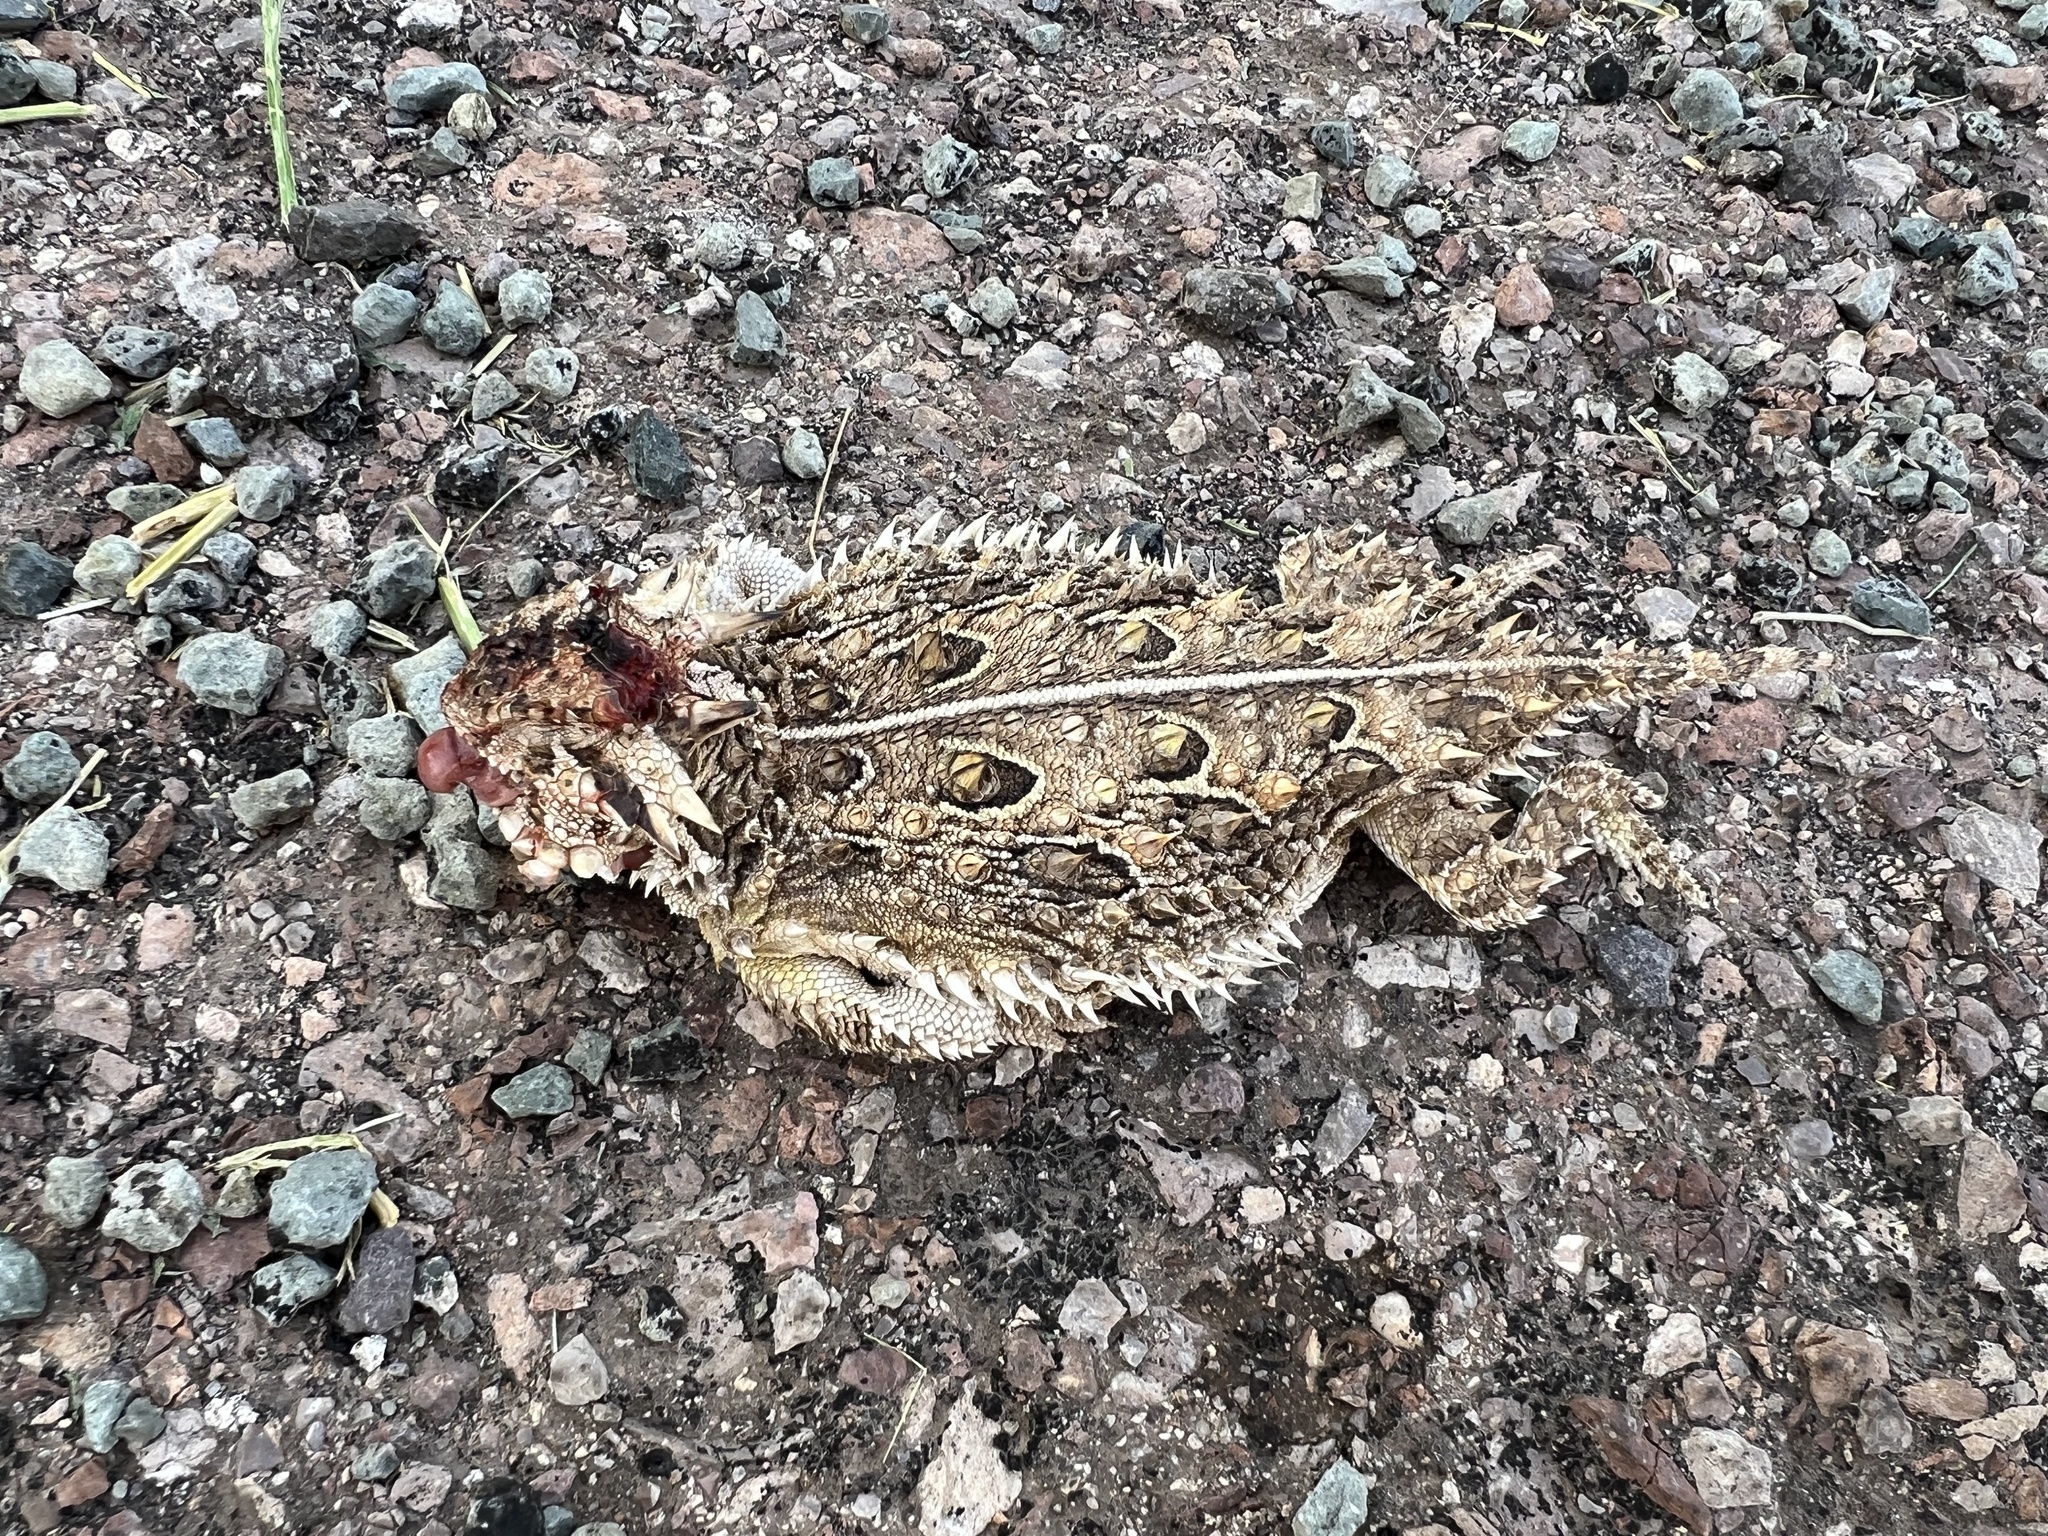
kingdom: Animalia
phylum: Chordata
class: Squamata
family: Phrynosomatidae
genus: Phrynosoma
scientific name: Phrynosoma cornutum
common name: Texas horned lizard
